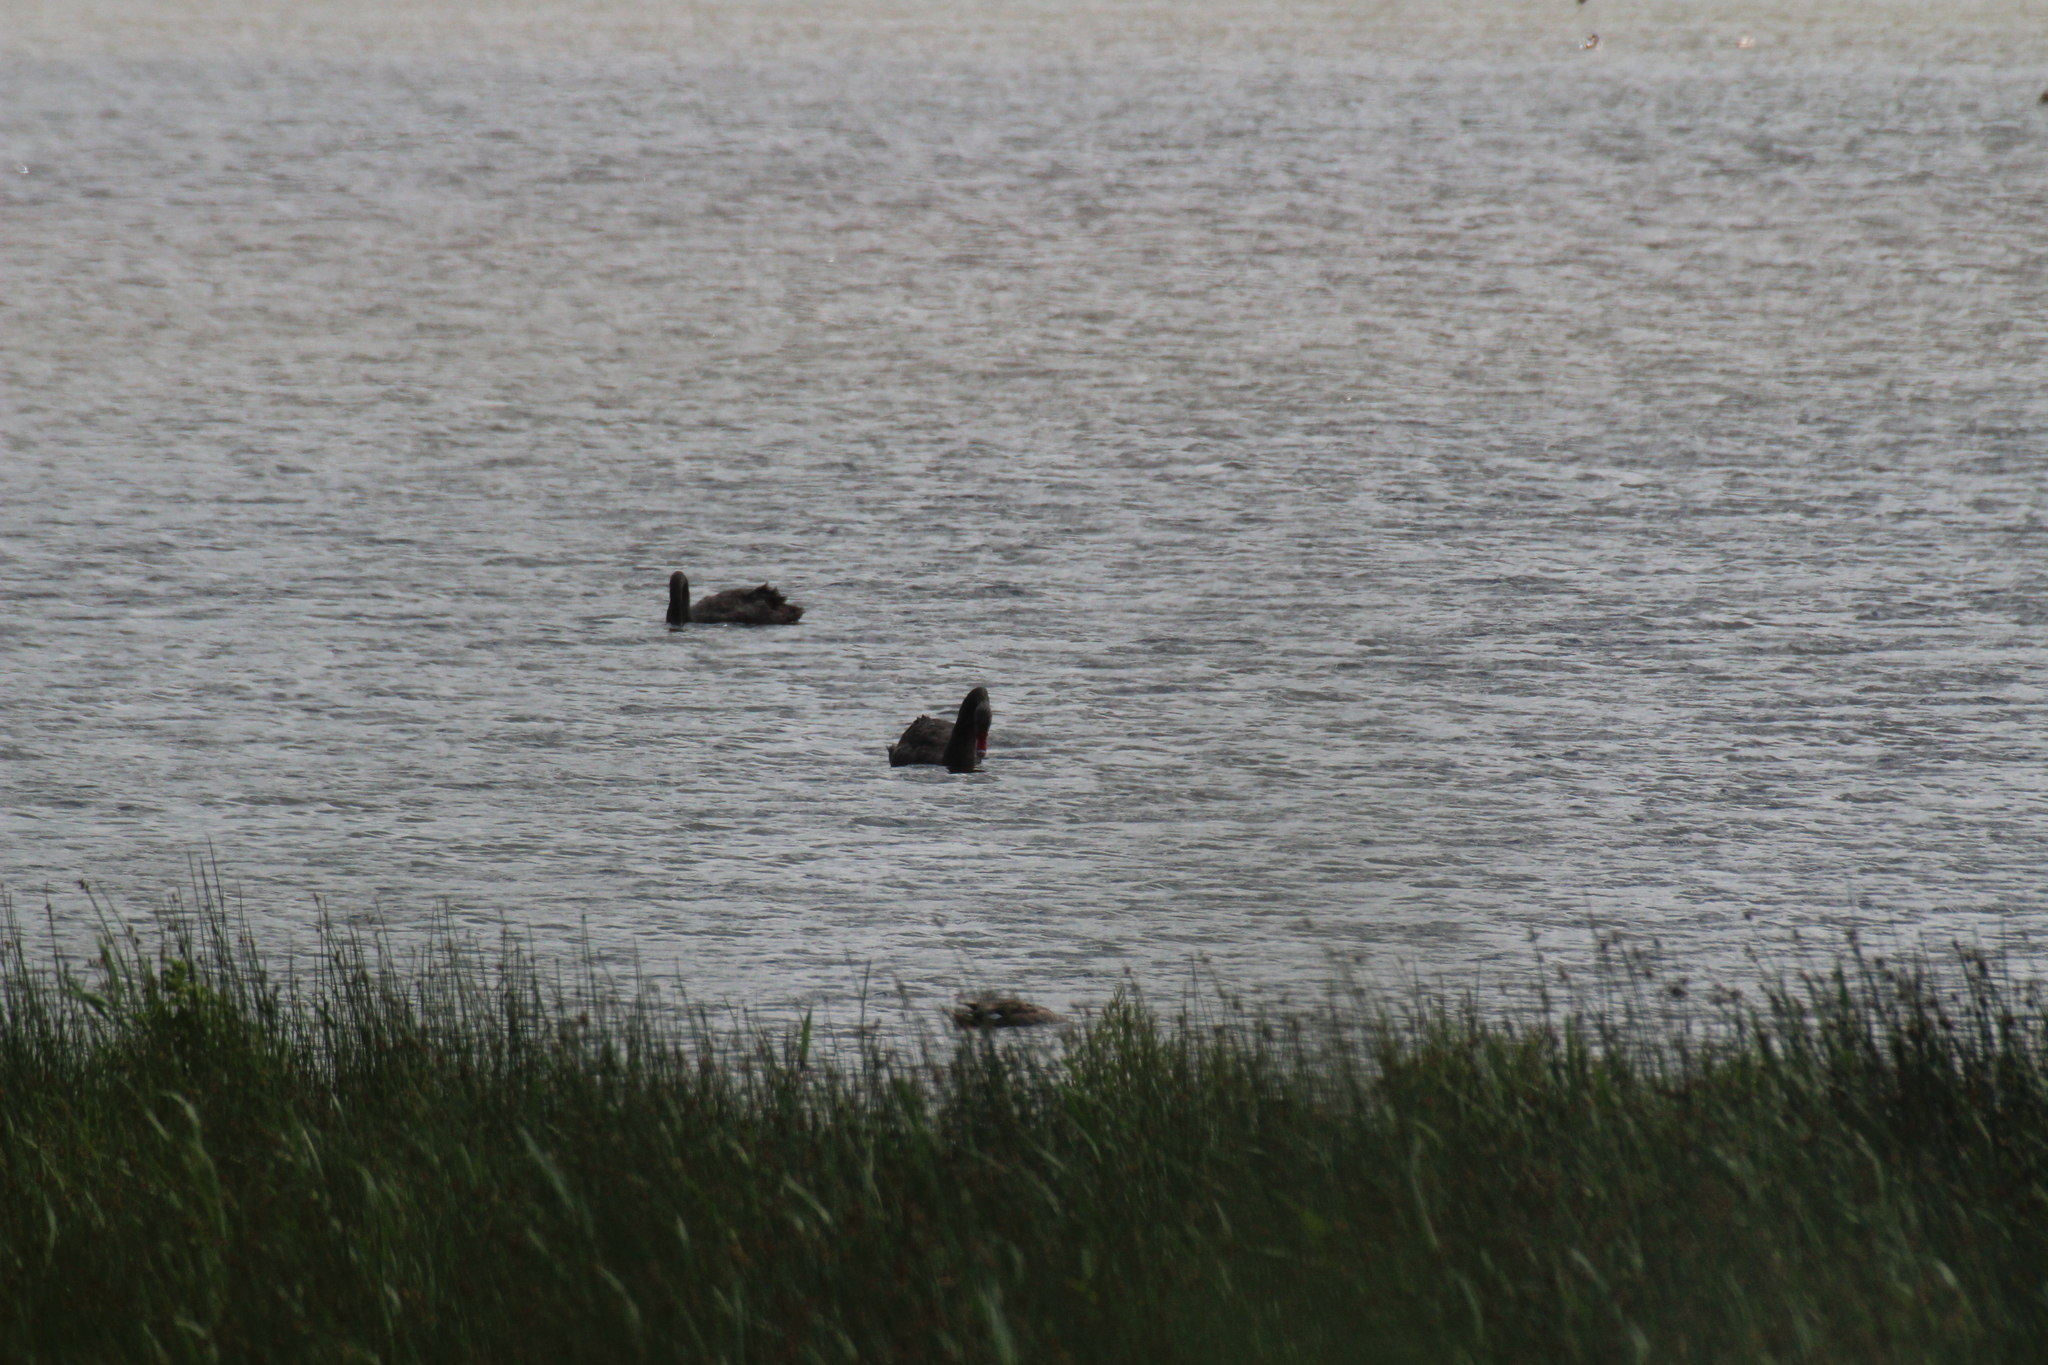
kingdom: Animalia
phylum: Chordata
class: Aves
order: Anseriformes
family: Anatidae
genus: Cygnus
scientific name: Cygnus atratus
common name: Black swan
